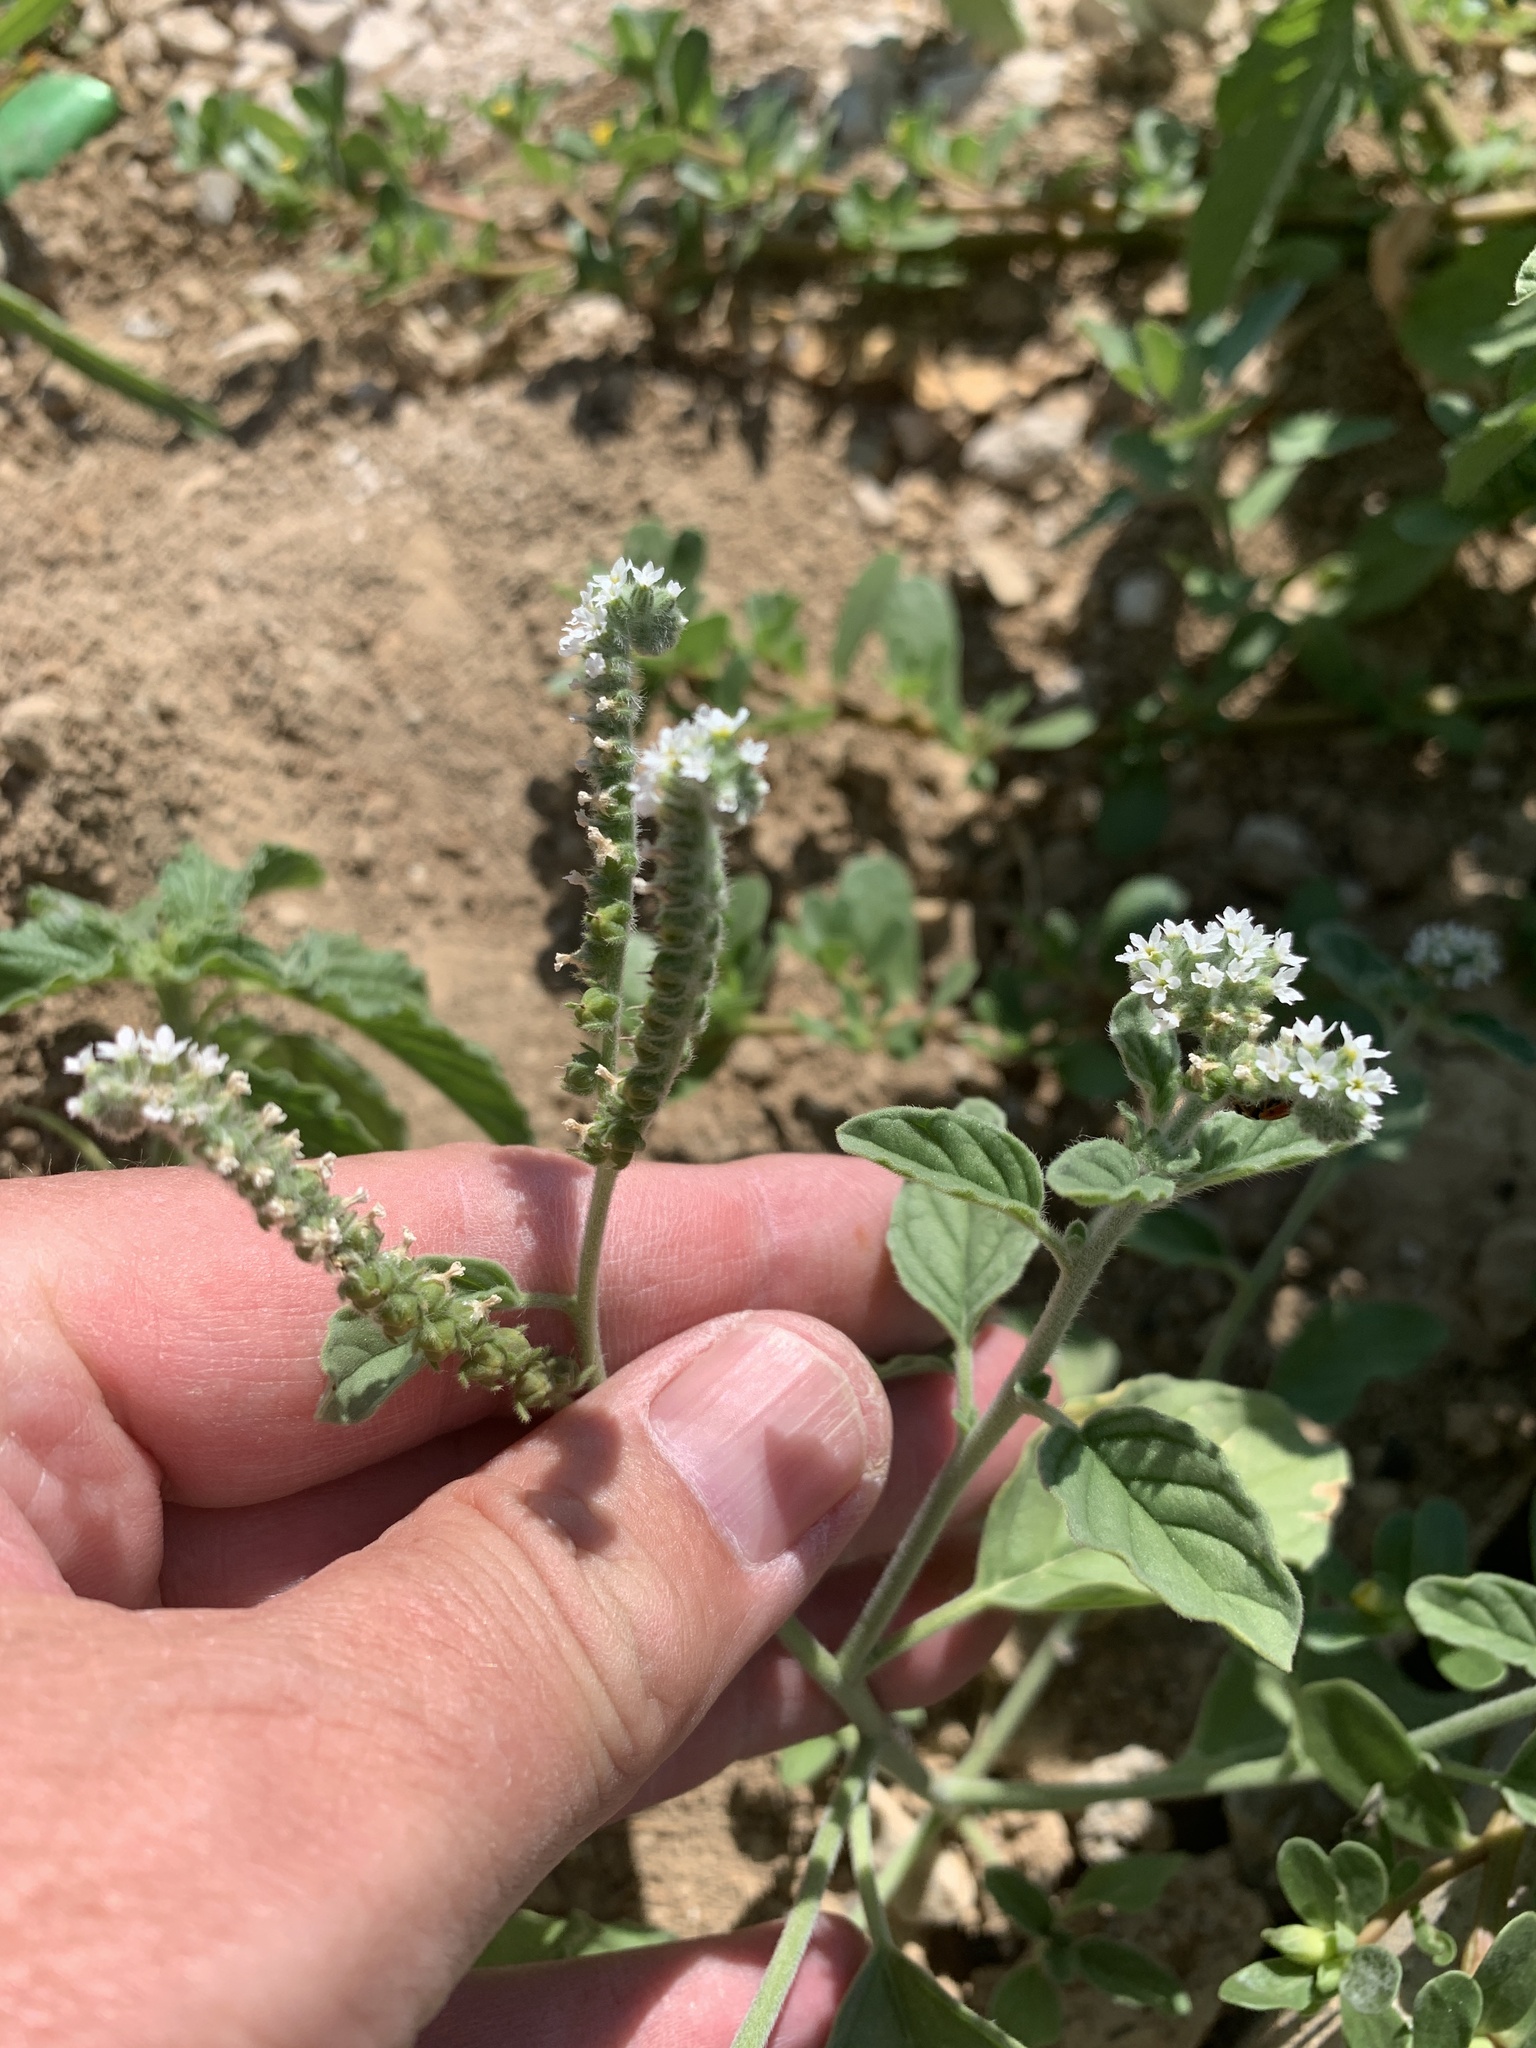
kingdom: Plantae
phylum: Tracheophyta
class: Magnoliopsida
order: Boraginales
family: Heliotropiaceae
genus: Heliotropium
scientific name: Heliotropium europaeum
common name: European heliotrope
